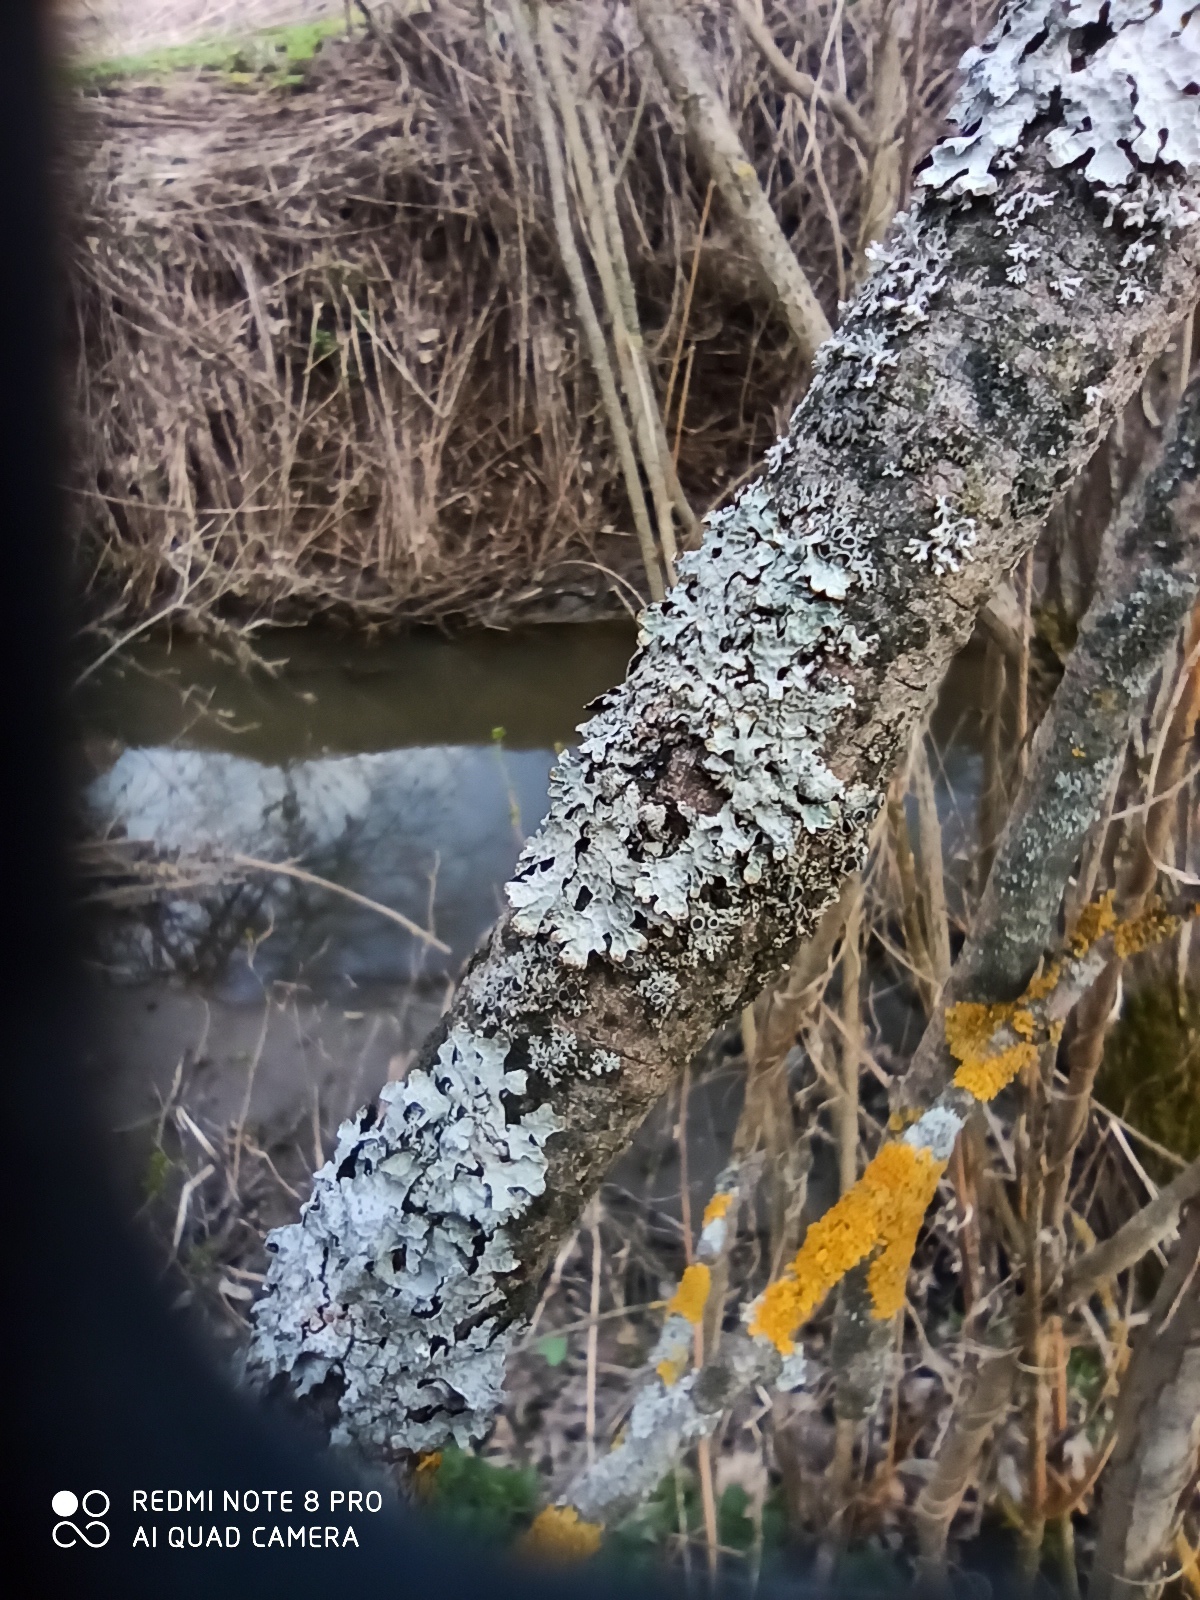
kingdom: Fungi
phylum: Ascomycota
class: Lecanoromycetes
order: Lecanorales
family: Parmeliaceae
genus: Parmelia
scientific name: Parmelia sulcata
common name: Netted shield lichen
